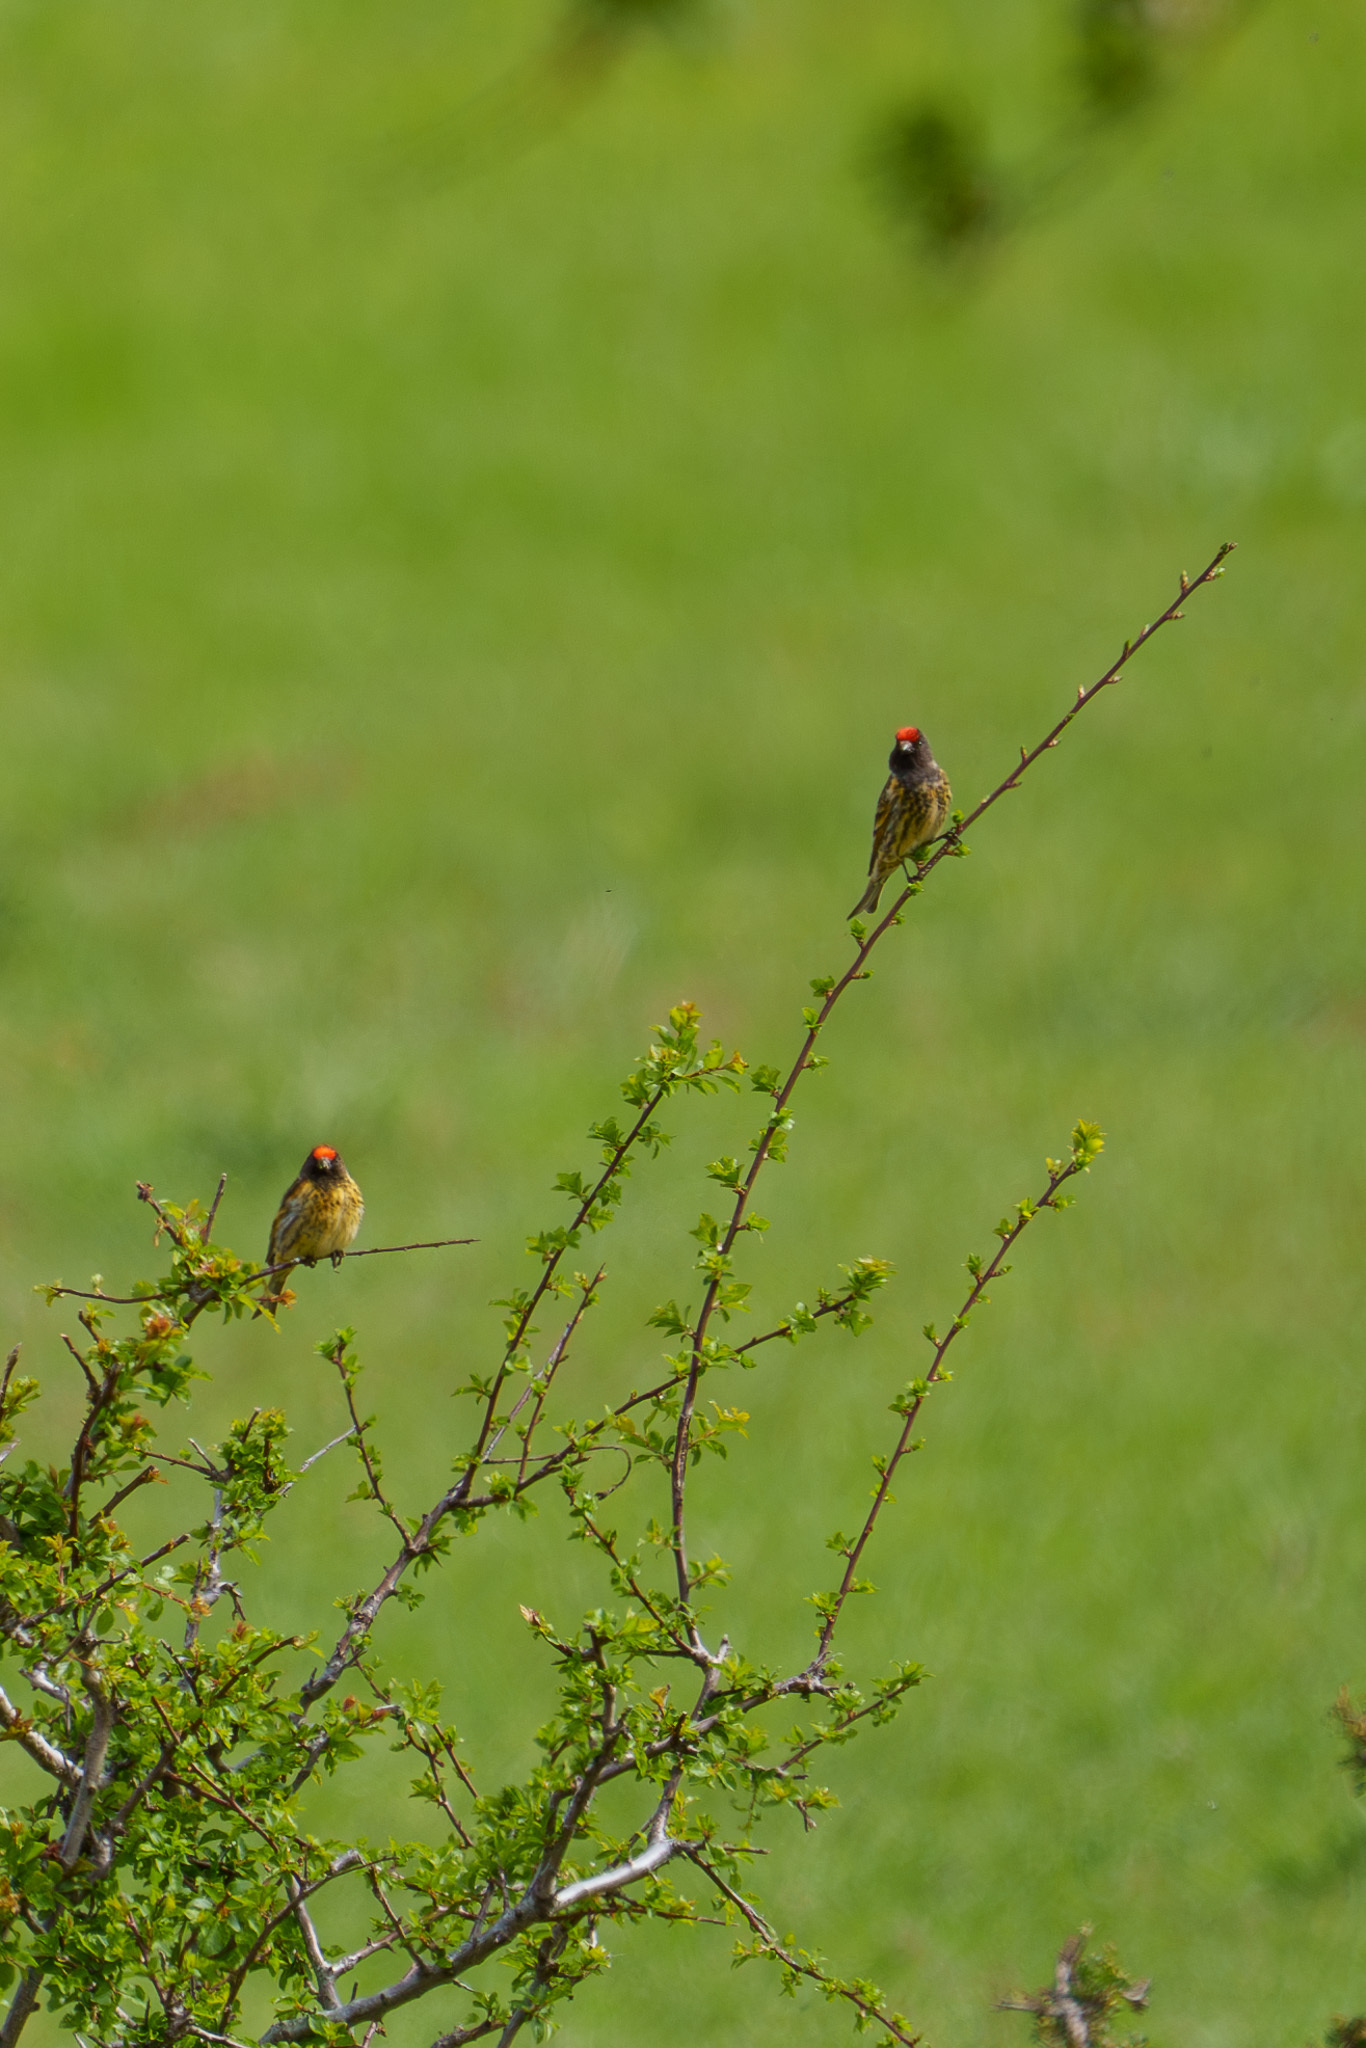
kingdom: Animalia
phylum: Chordata
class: Aves
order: Passeriformes
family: Fringillidae
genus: Serinus
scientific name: Serinus pusillus
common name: Red-fronted serin
